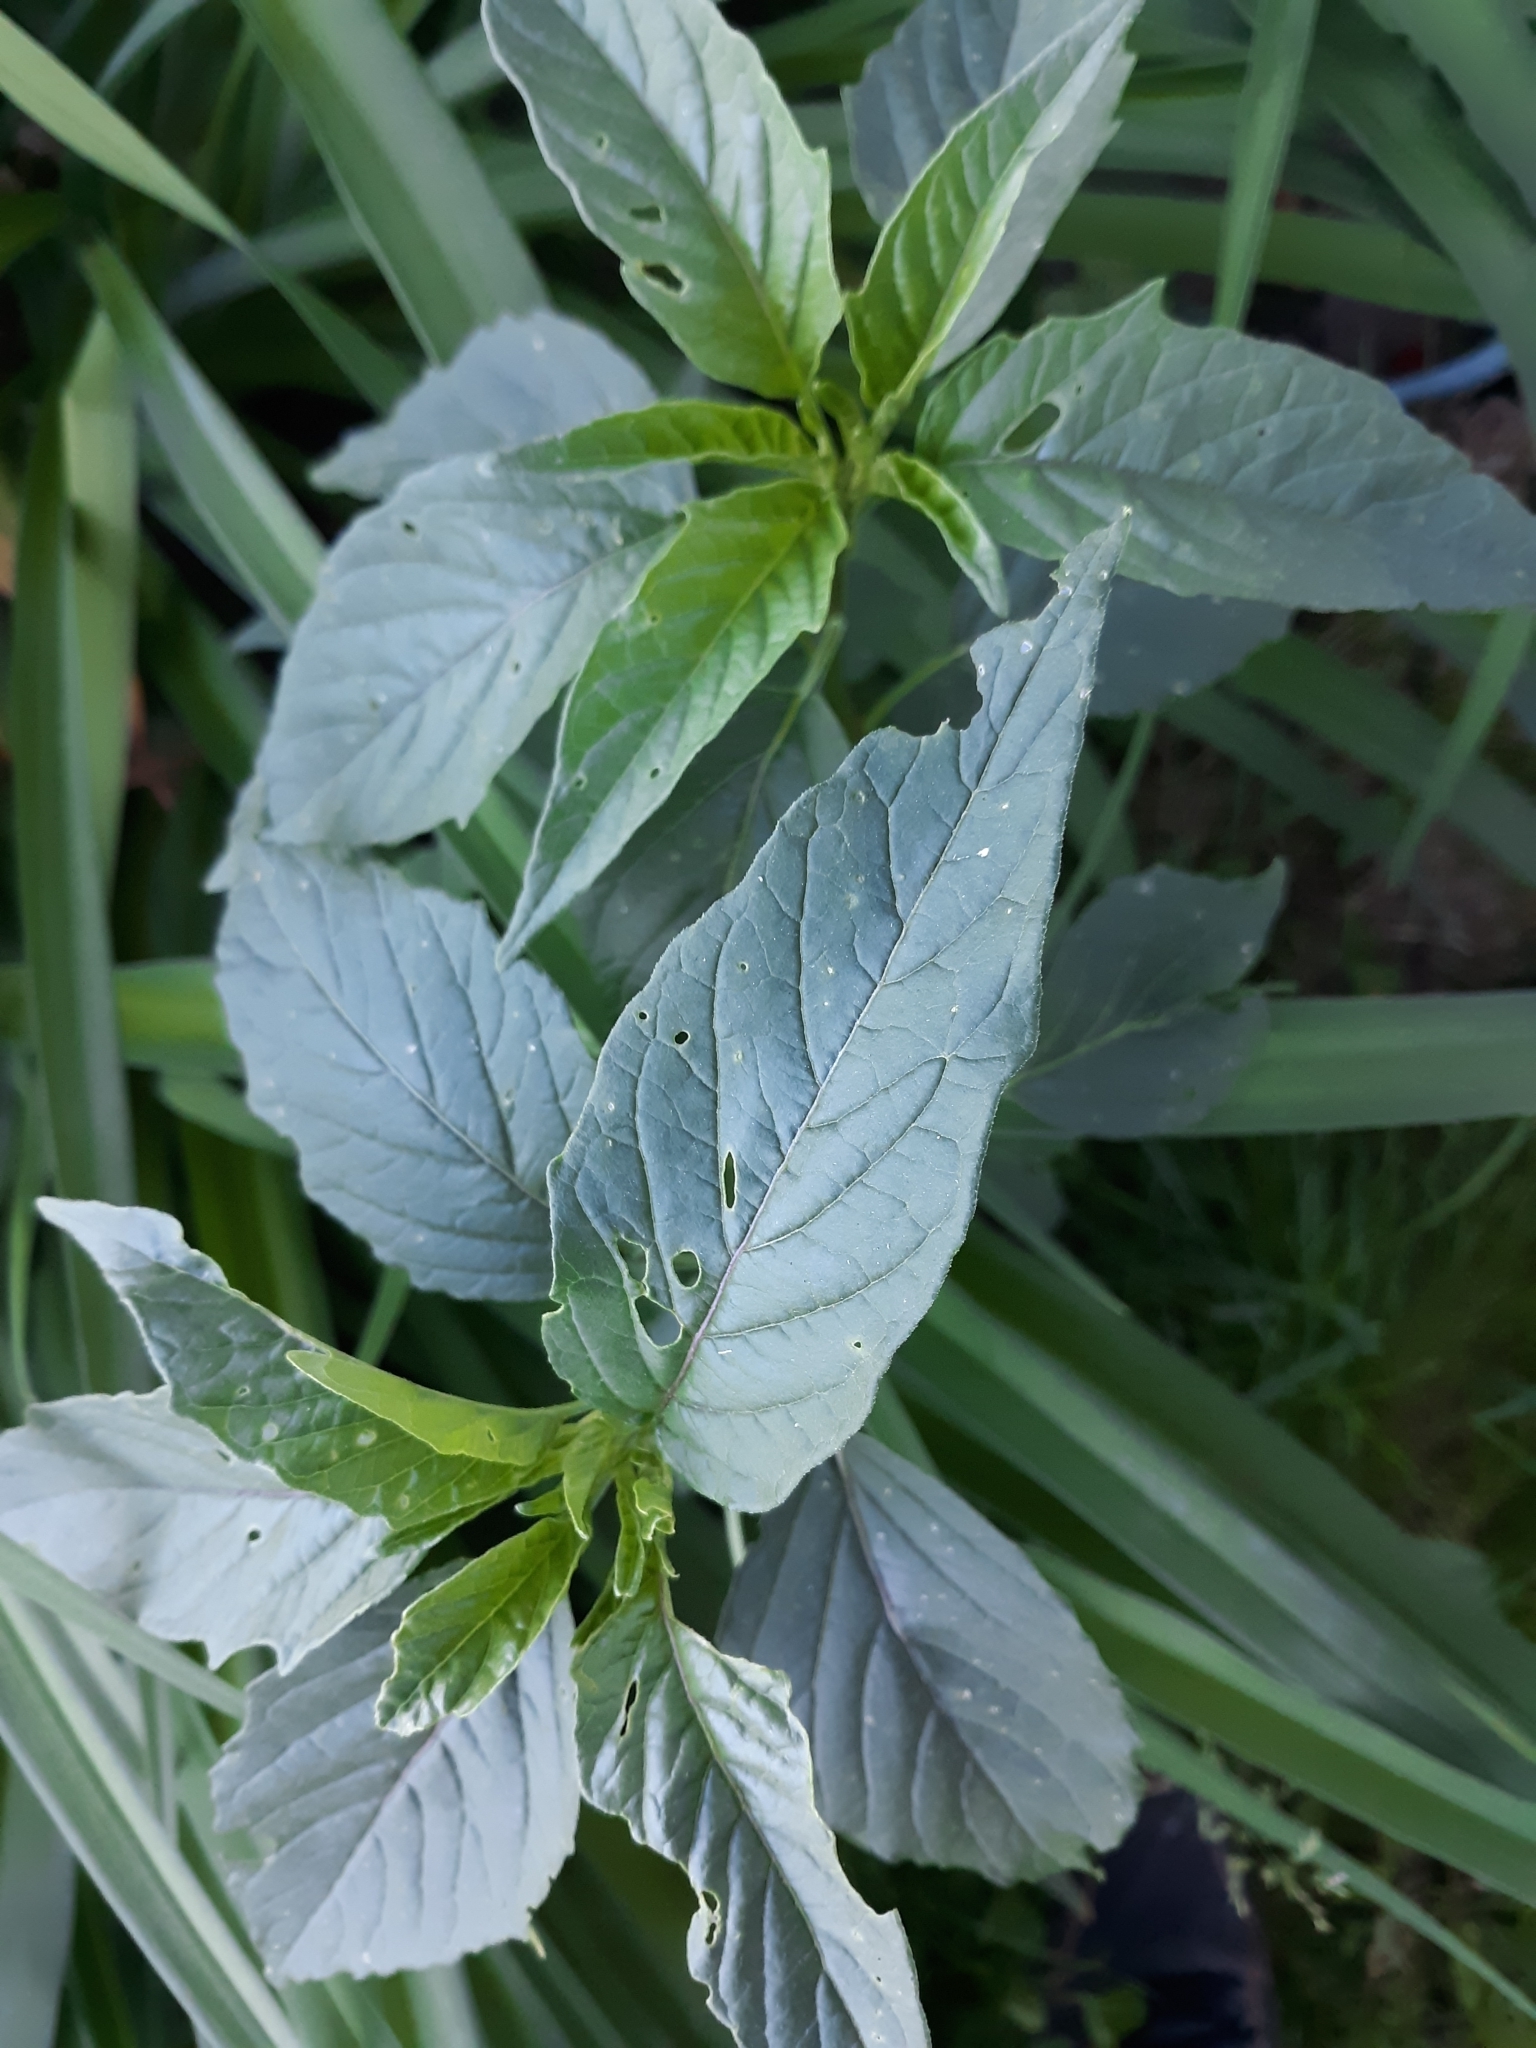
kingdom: Plantae
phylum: Tracheophyta
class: Magnoliopsida
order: Solanales
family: Solanaceae
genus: Physalis
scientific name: Physalis longifolia
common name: Common ground-cherry
